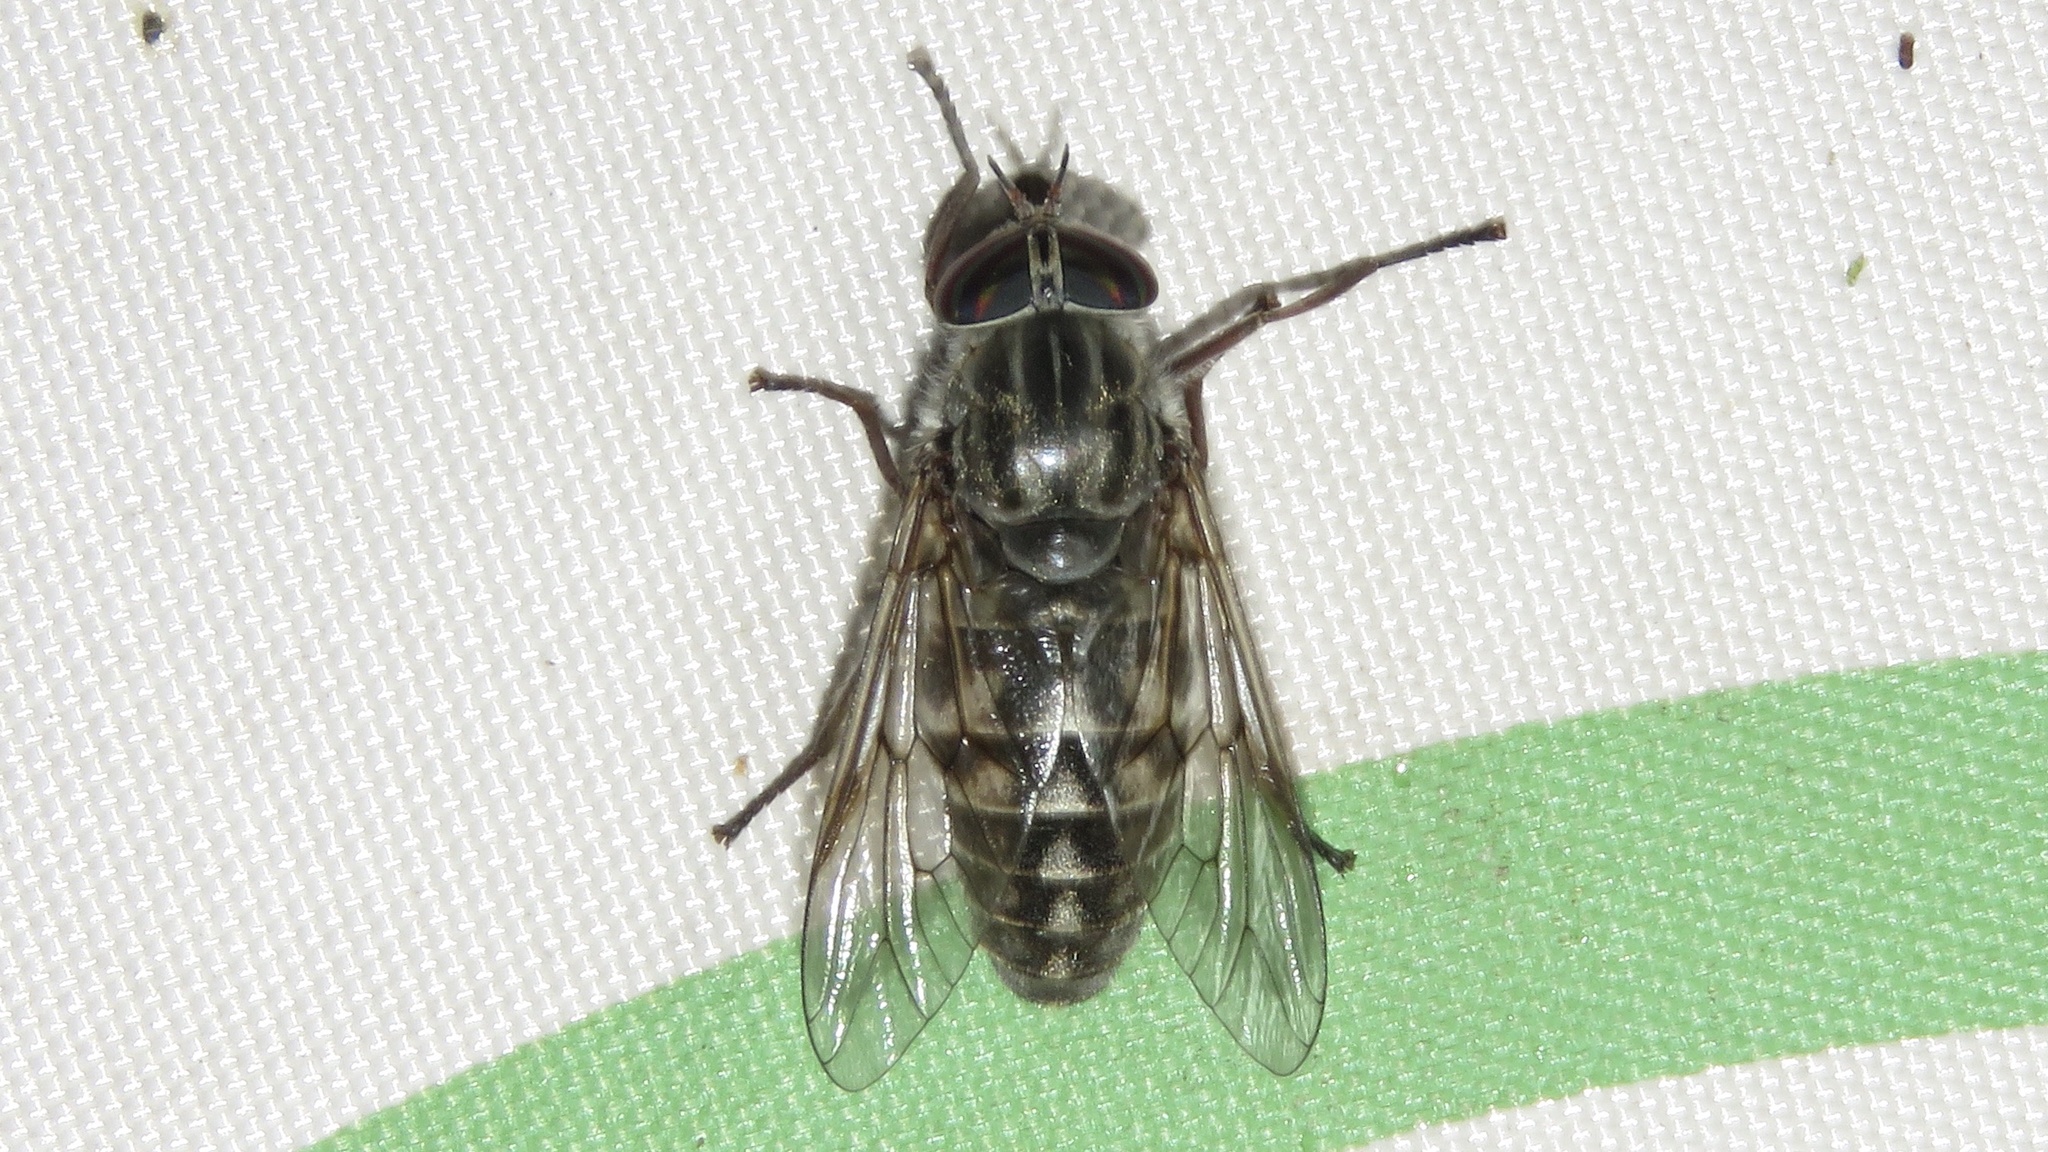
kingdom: Animalia
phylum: Arthropoda
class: Insecta
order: Diptera
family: Tabanidae
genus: Hybomitra
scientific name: Hybomitra microcephala
